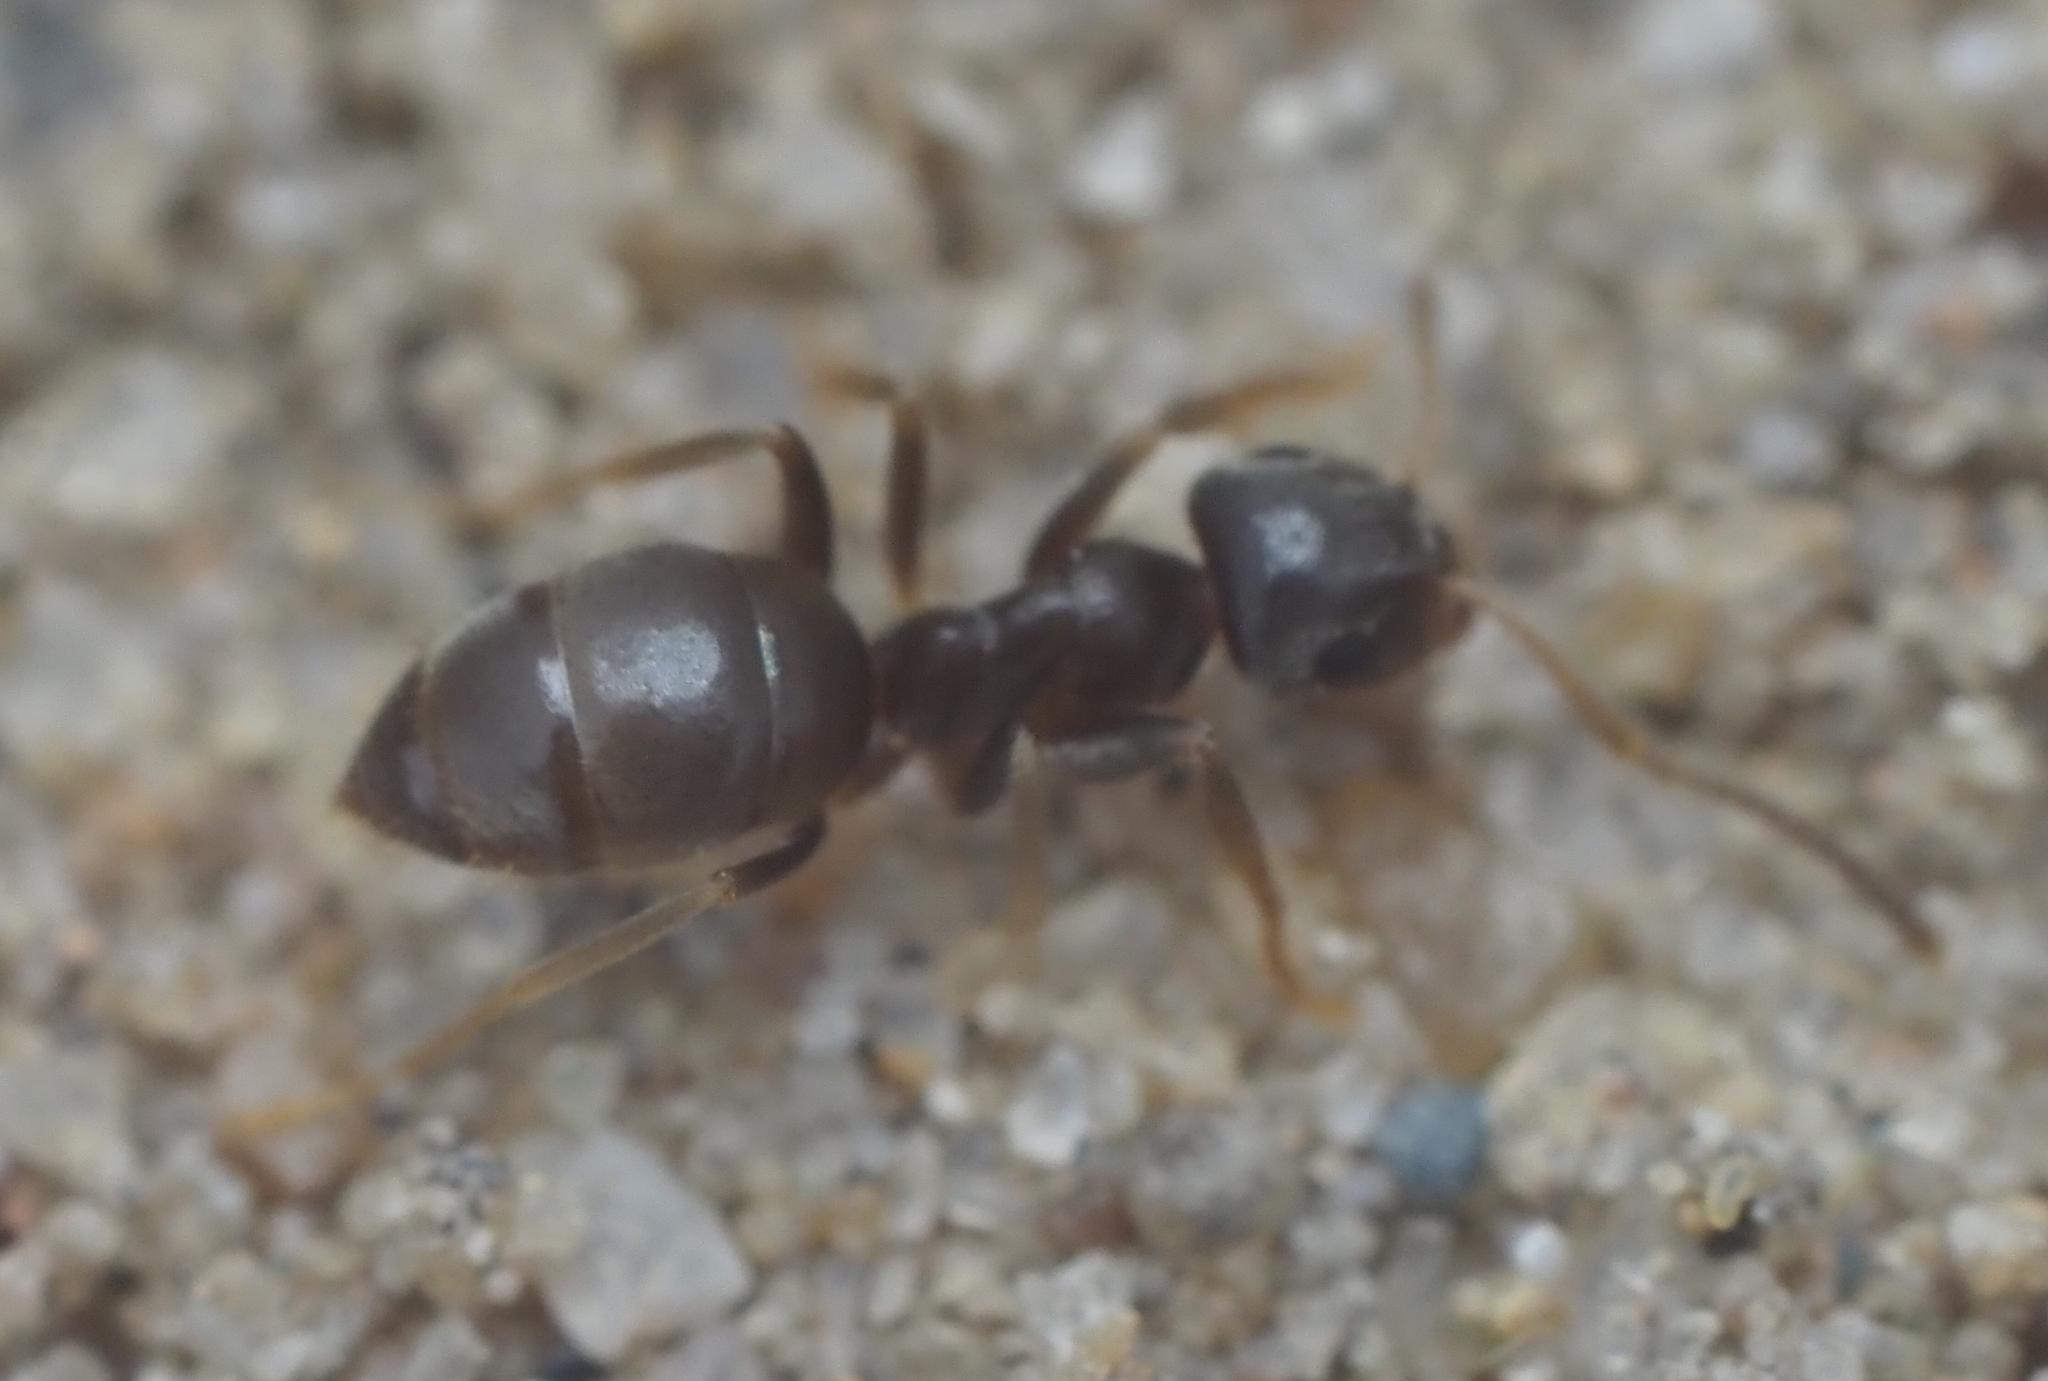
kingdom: Animalia
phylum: Arthropoda
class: Insecta
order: Hymenoptera
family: Formicidae
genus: Lasius
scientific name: Lasius americanus
